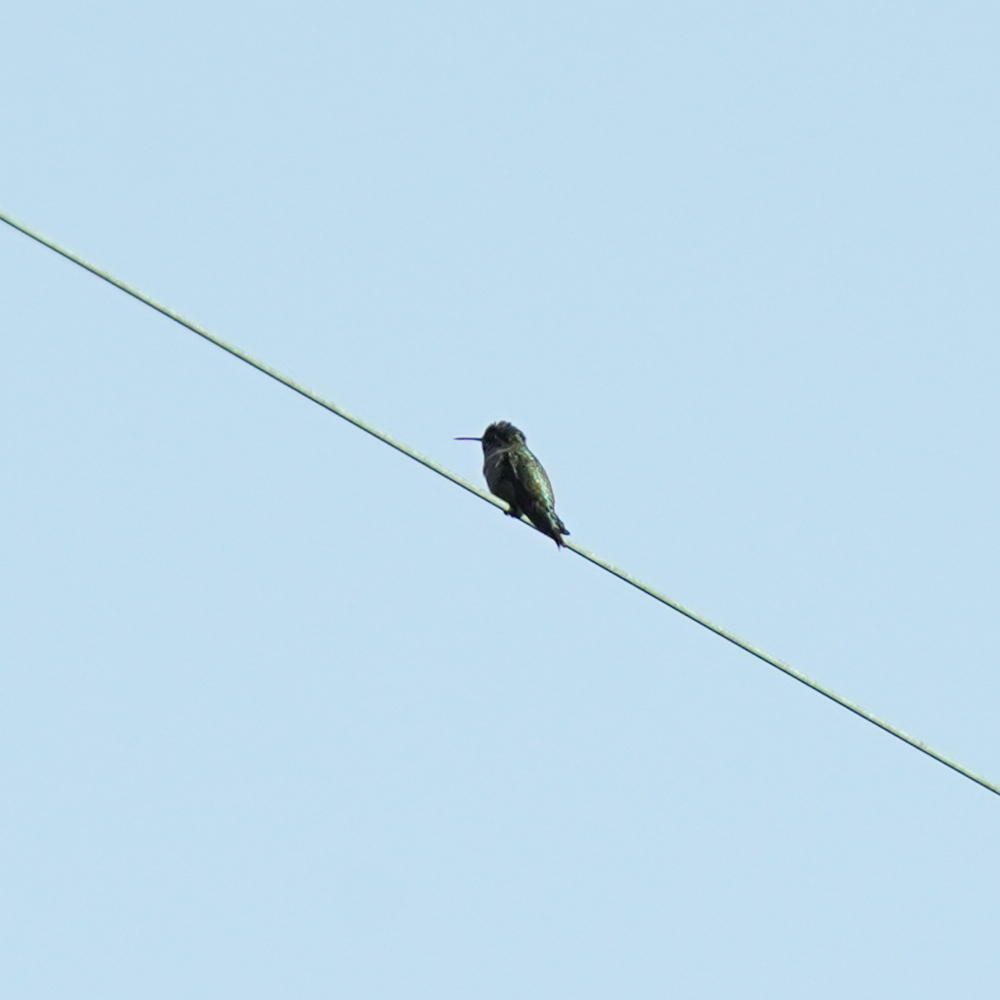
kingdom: Animalia
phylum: Chordata
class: Aves
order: Apodiformes
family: Trochilidae
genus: Calypte
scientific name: Calypte anna
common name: Anna's hummingbird
